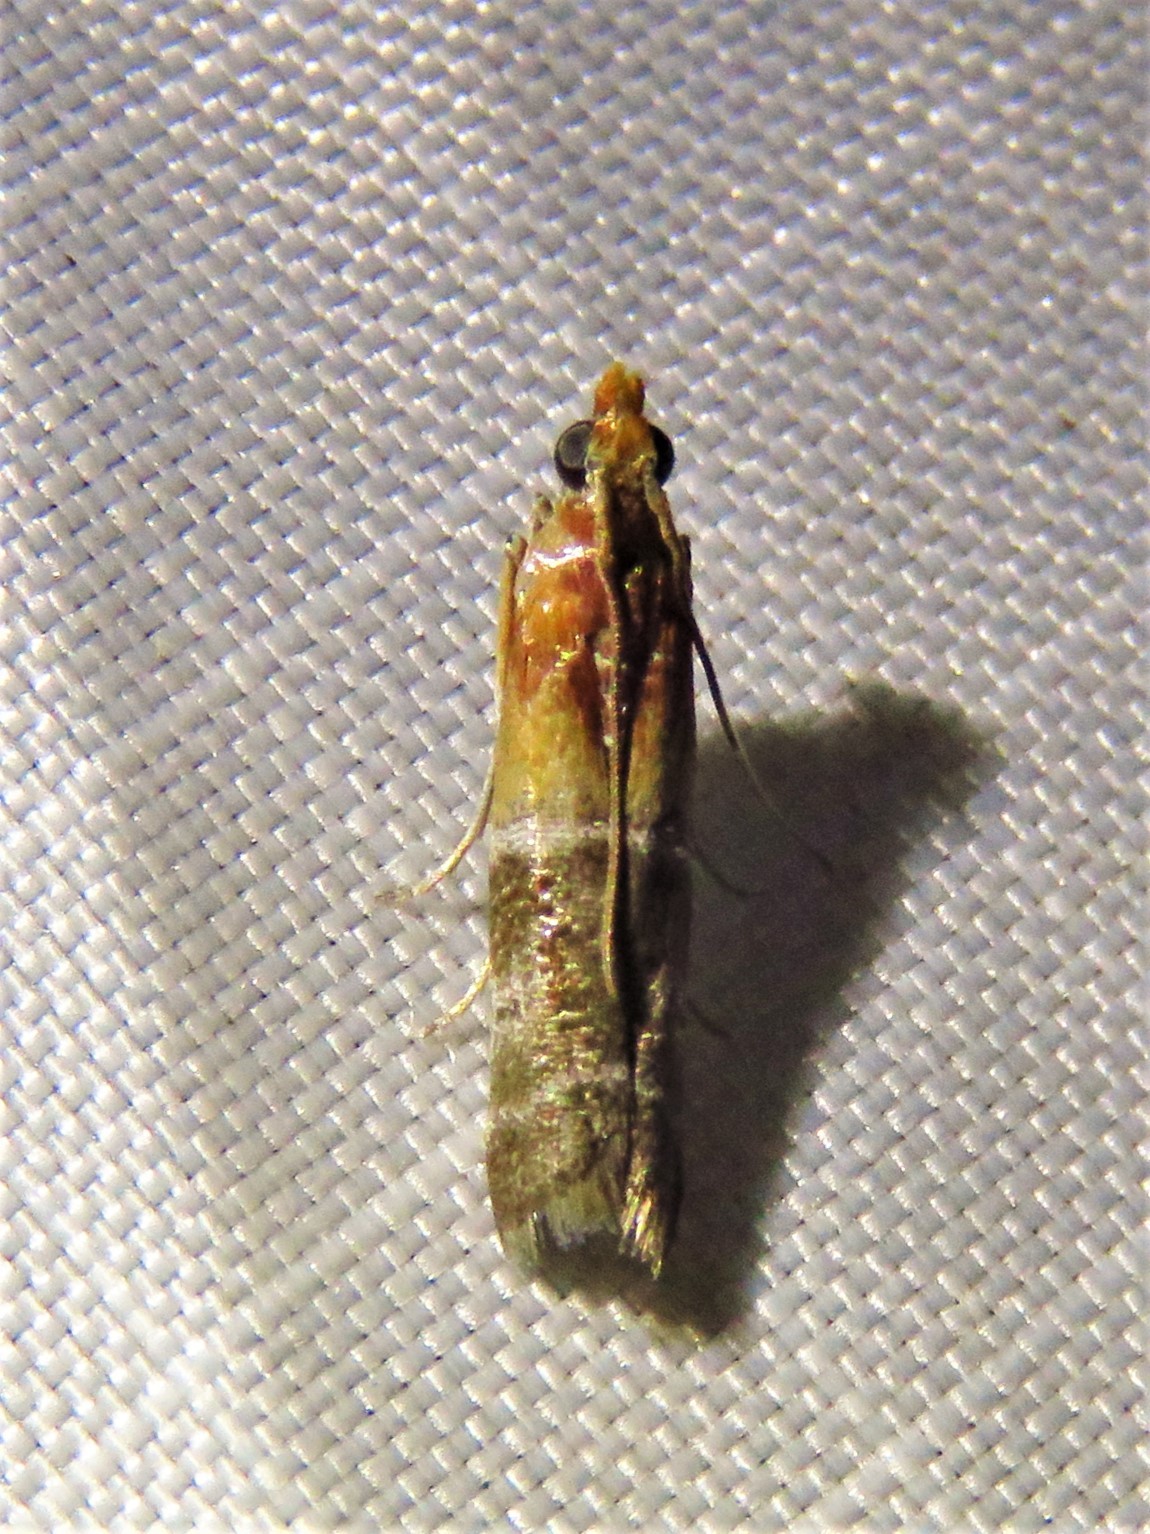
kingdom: Animalia
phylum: Arthropoda
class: Insecta
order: Lepidoptera
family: Pyralidae
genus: Moodna
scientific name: Moodna pallidostrinella
